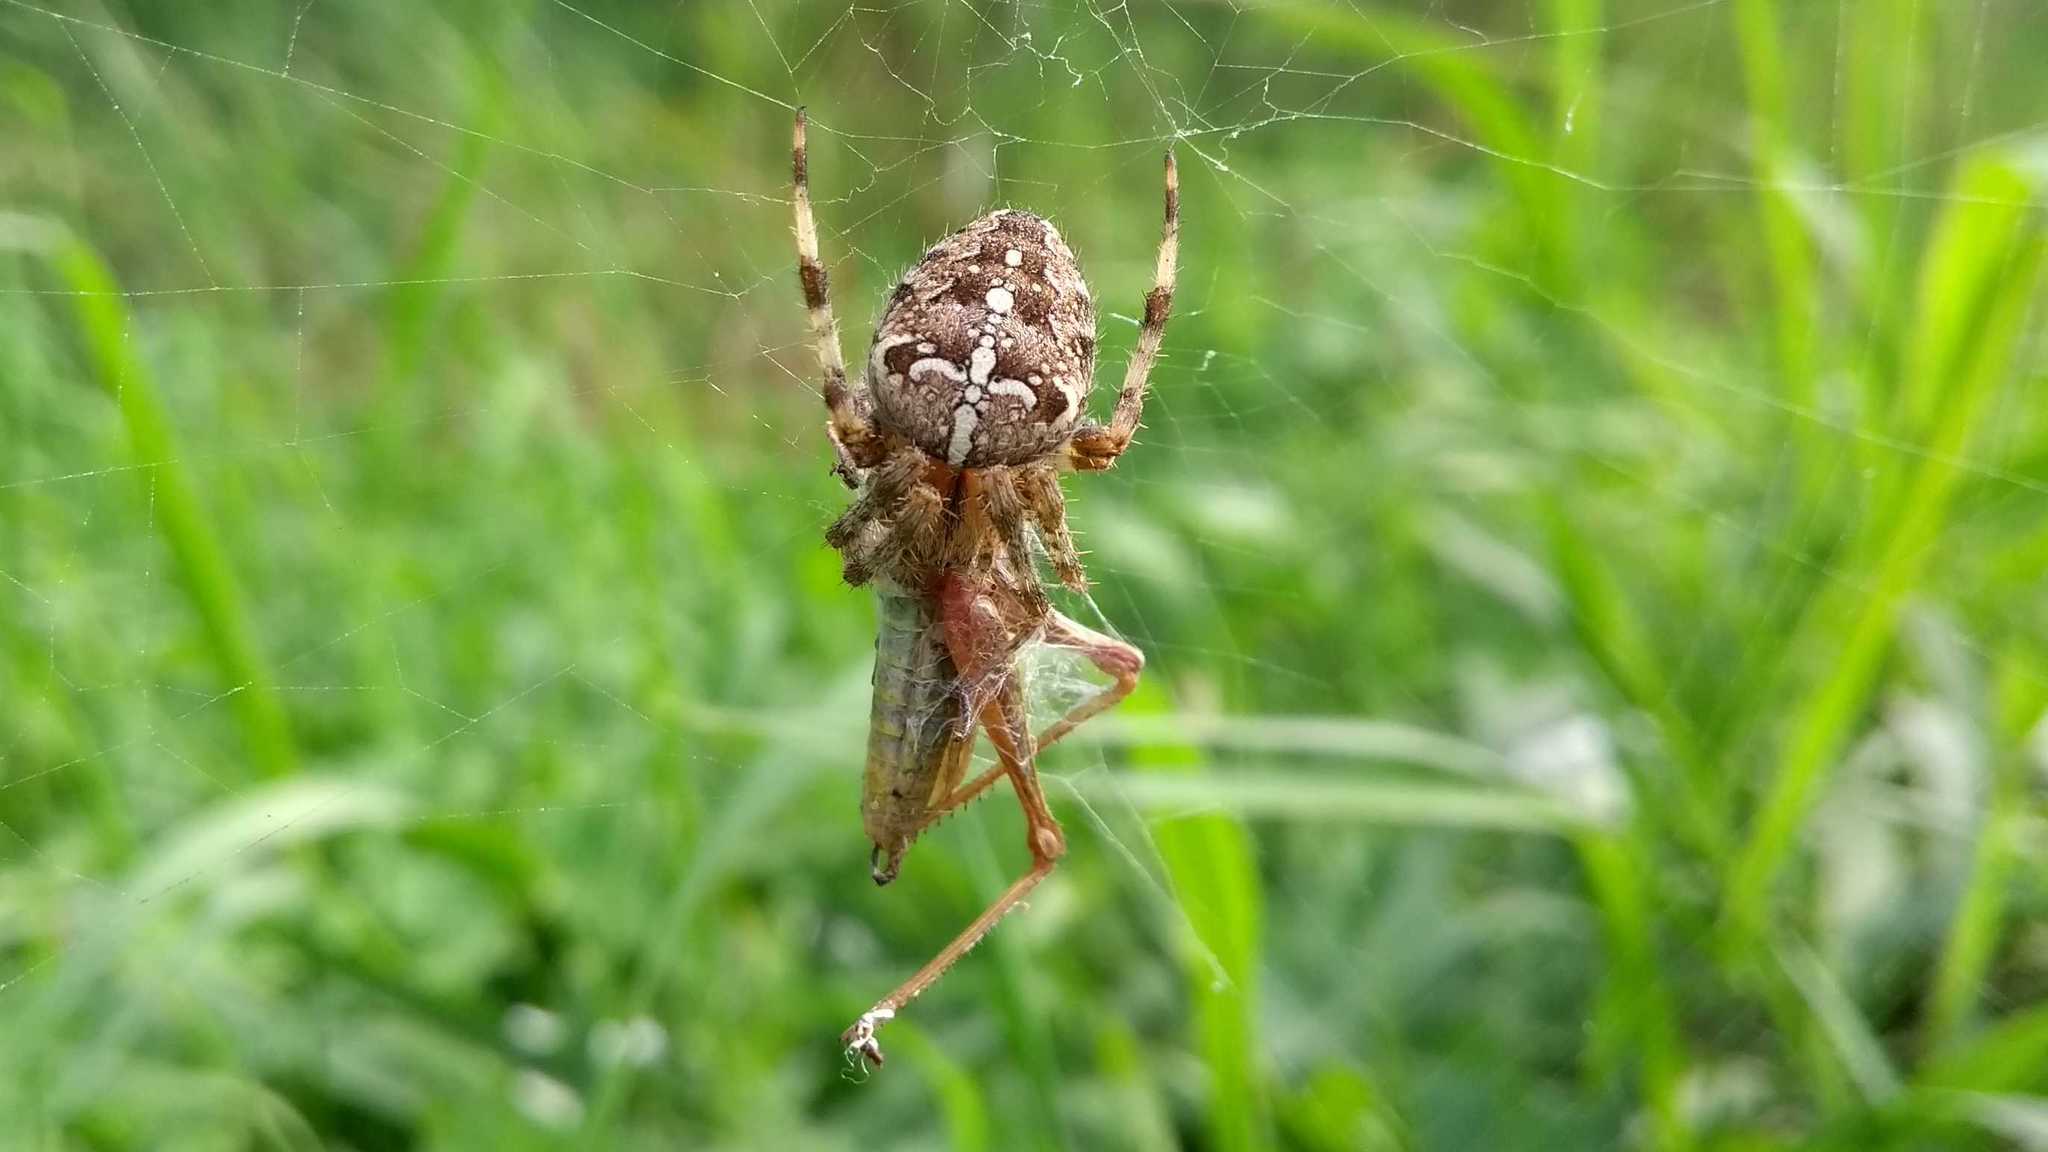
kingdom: Animalia
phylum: Arthropoda
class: Arachnida
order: Araneae
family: Araneidae
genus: Araneus
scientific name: Araneus diadematus
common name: Cross orbweaver
